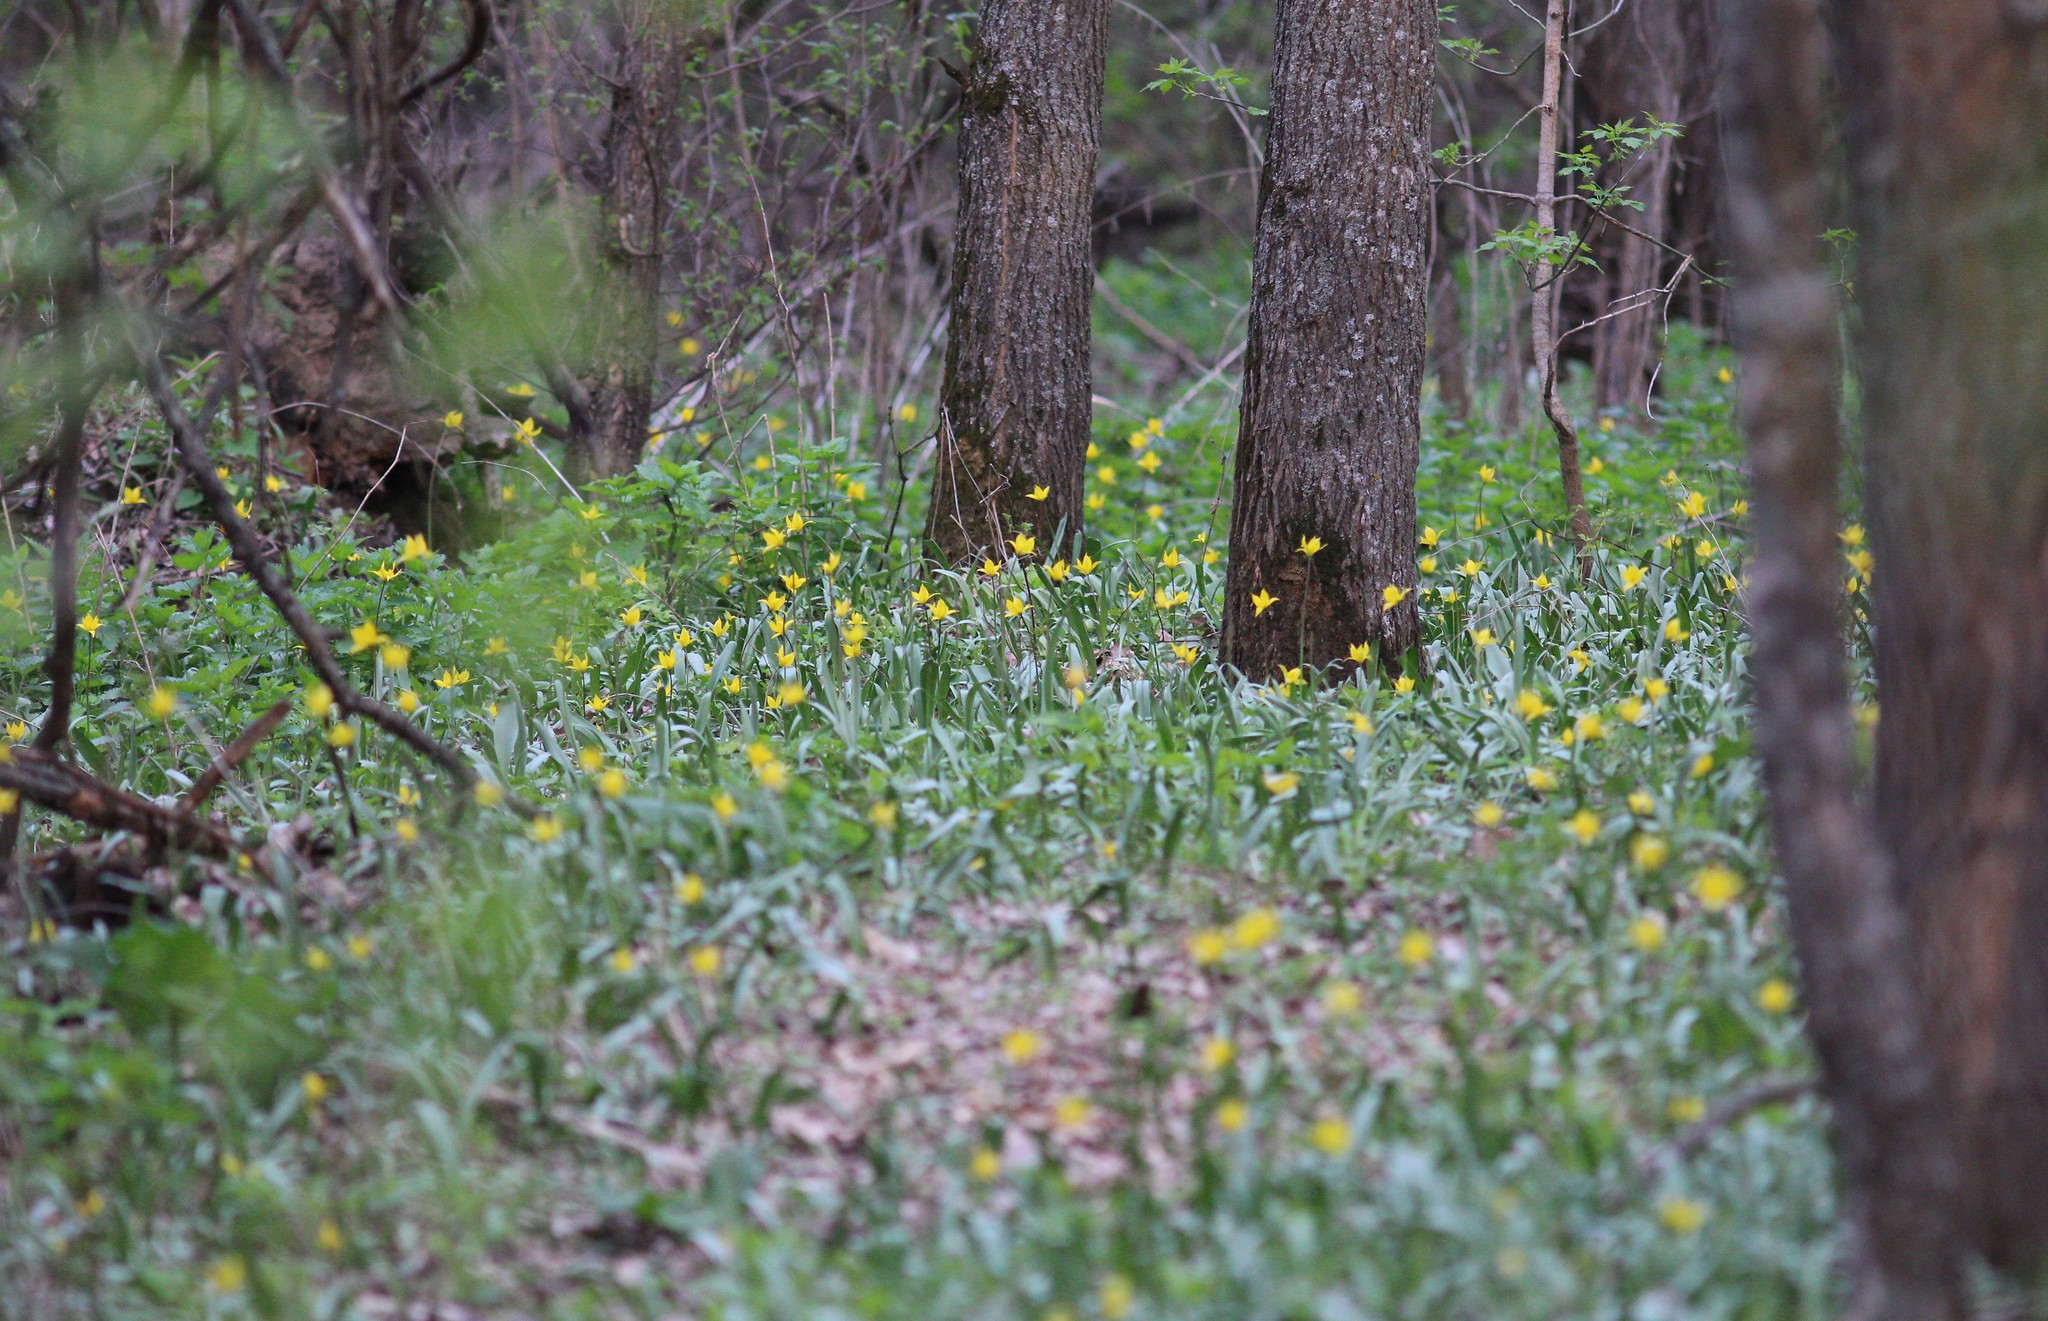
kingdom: Plantae
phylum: Tracheophyta
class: Liliopsida
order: Liliales
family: Liliaceae
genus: Tulipa
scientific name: Tulipa sylvestris
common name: Wild tulip
